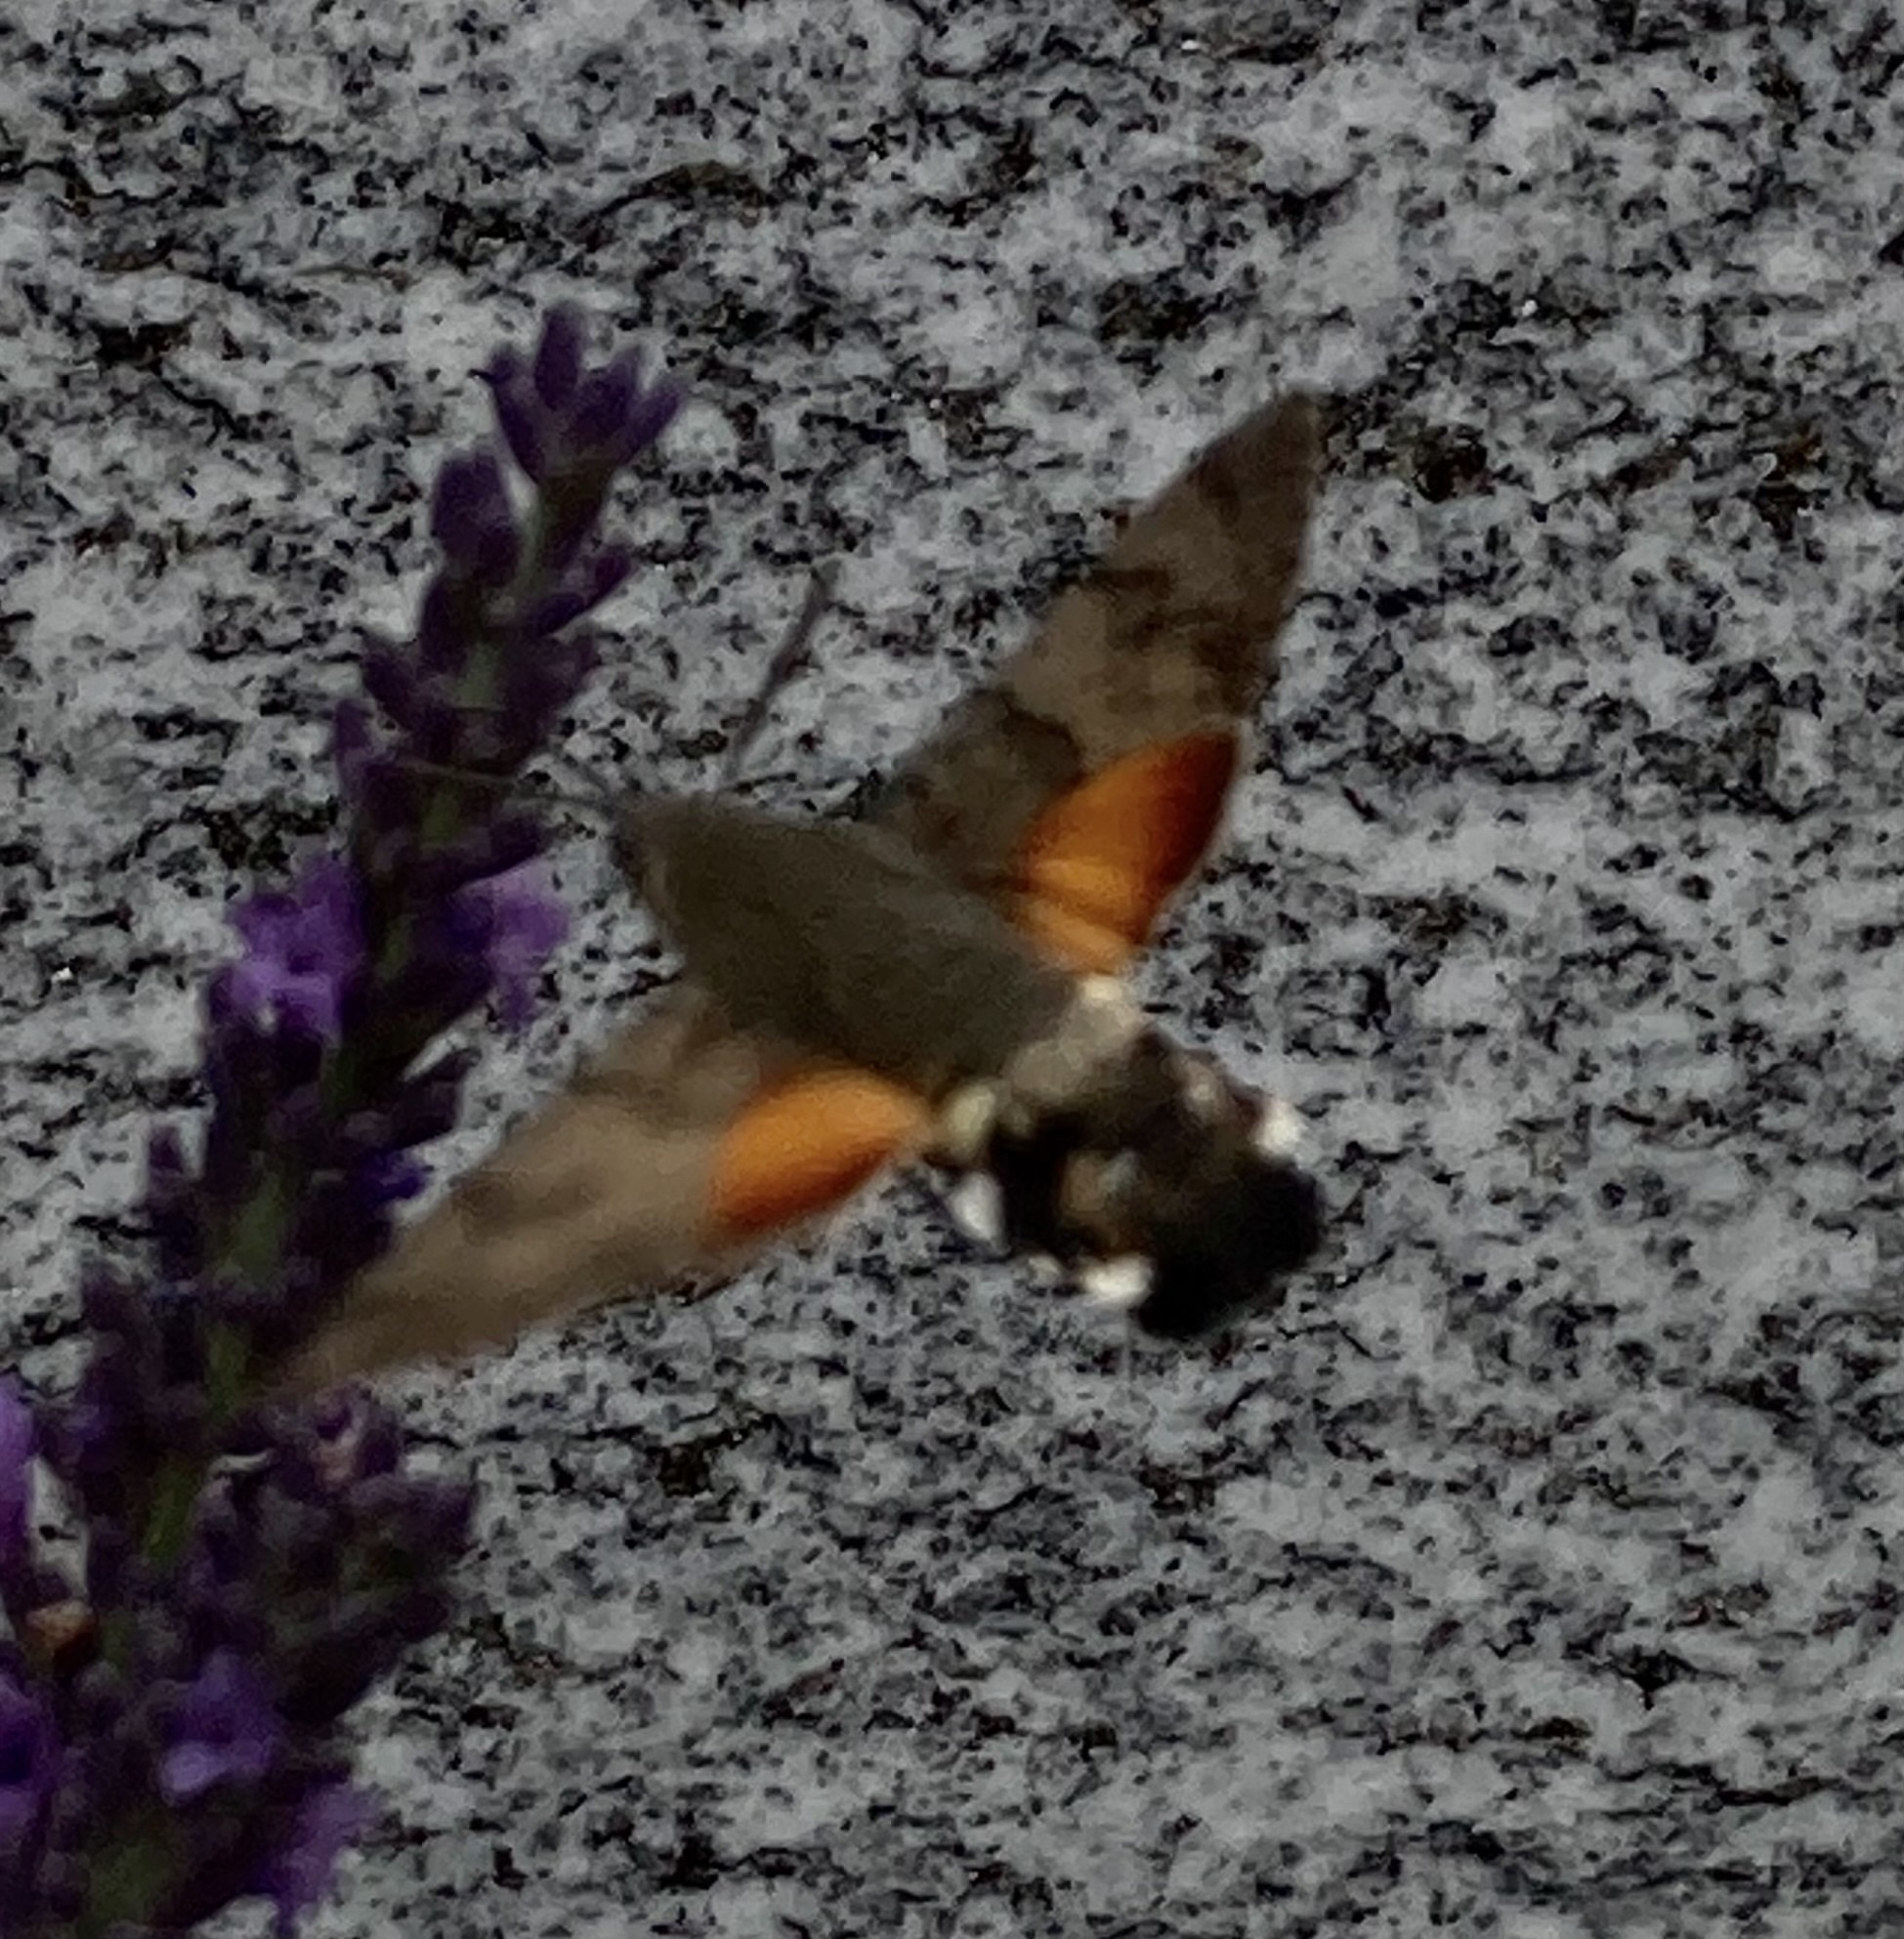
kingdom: Animalia
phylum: Arthropoda
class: Insecta
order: Lepidoptera
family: Sphingidae
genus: Macroglossum
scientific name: Macroglossum stellatarum
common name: Humming-bird hawk-moth
